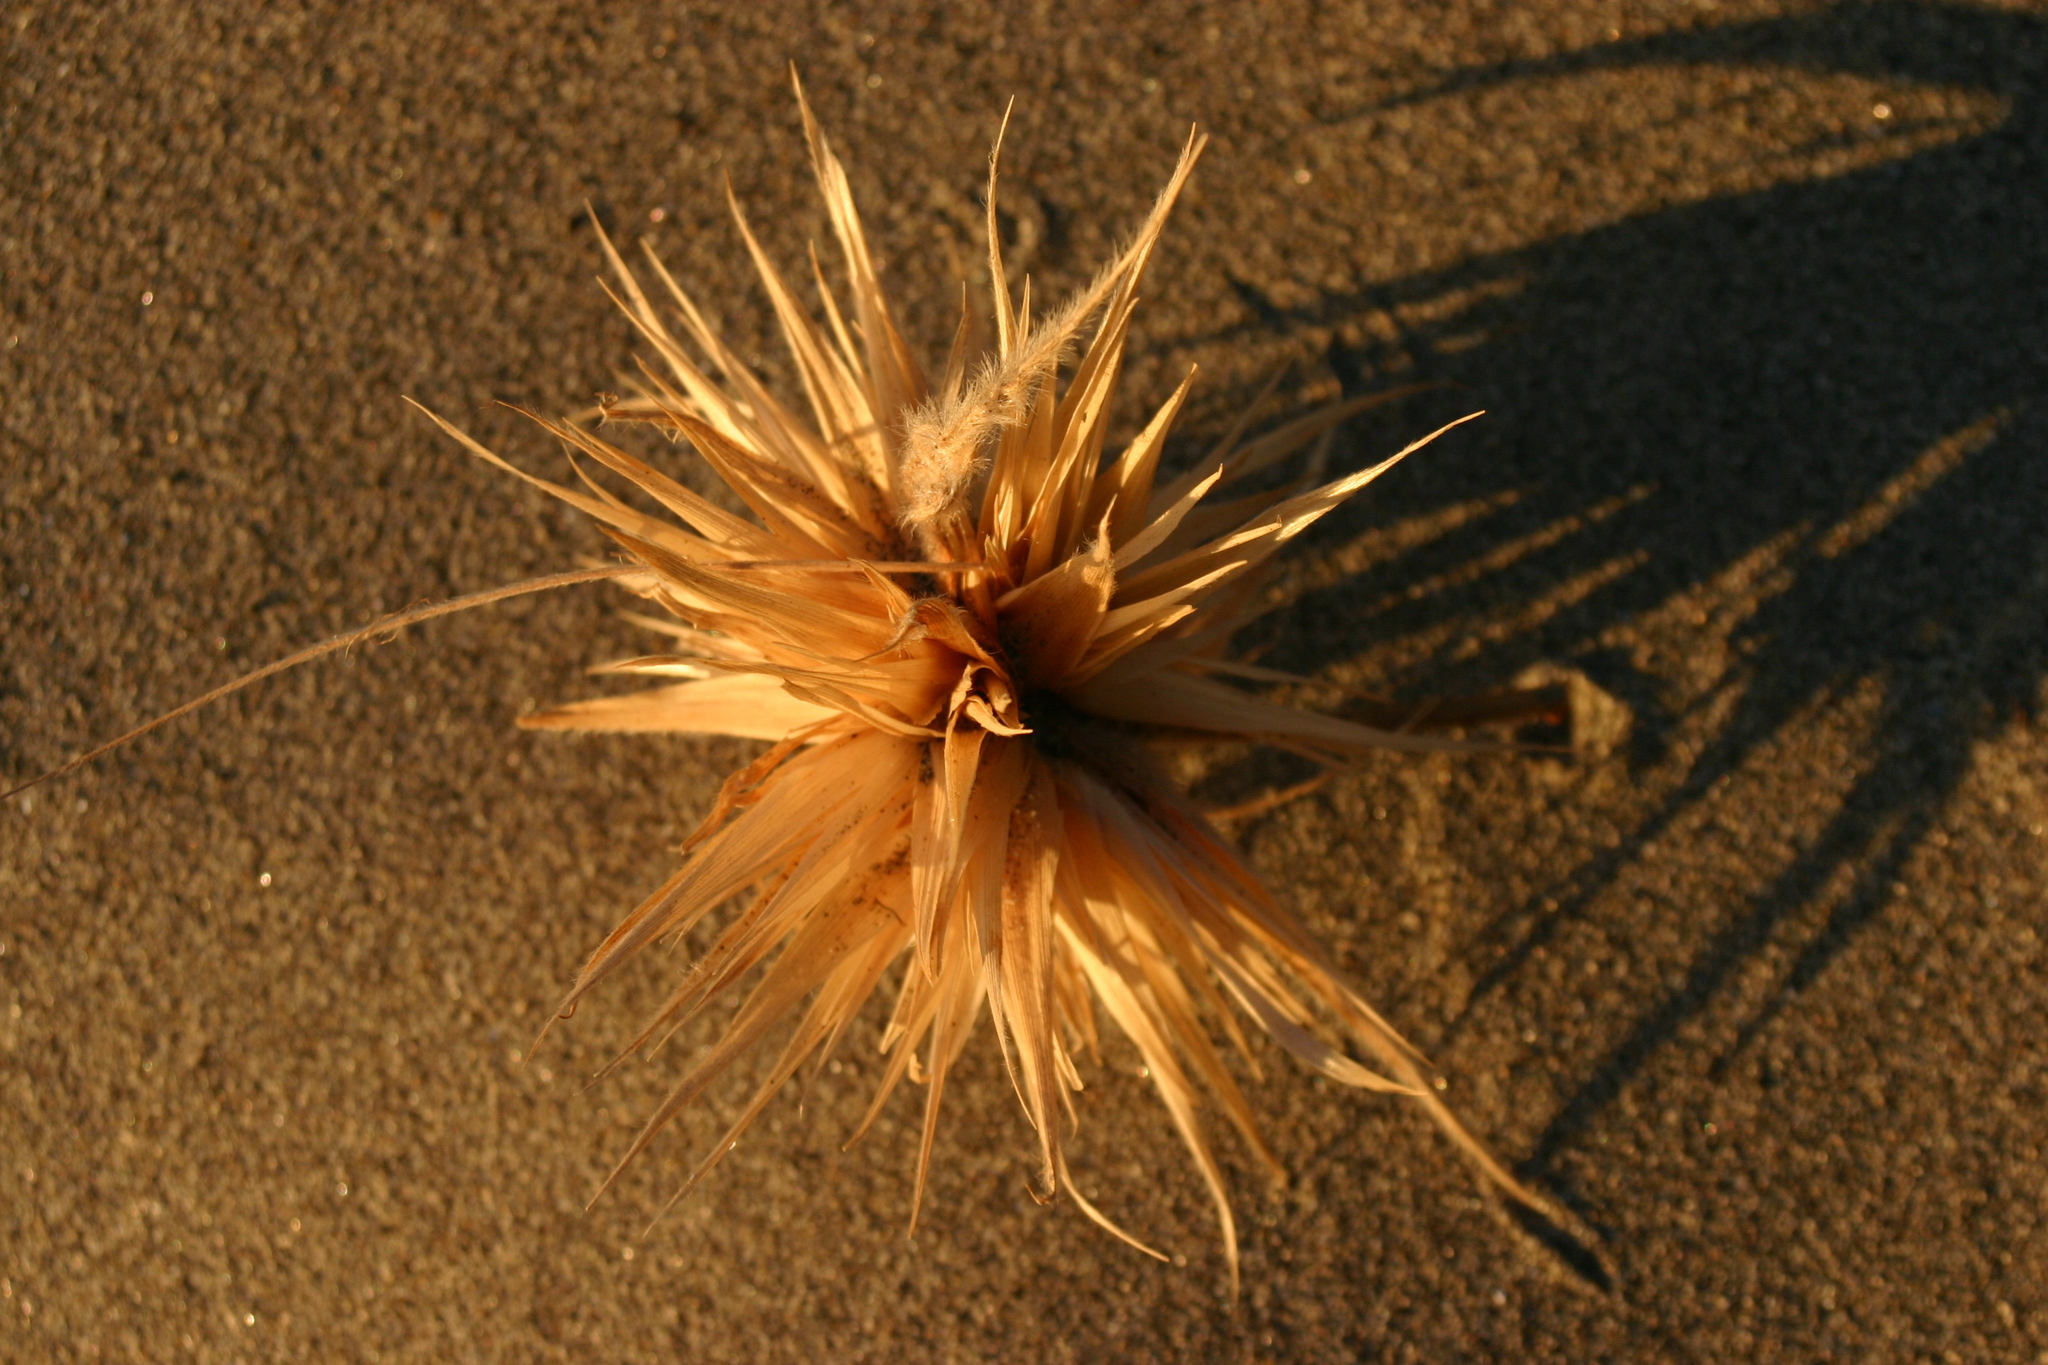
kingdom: Plantae
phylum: Tracheophyta
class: Liliopsida
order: Poales
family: Poaceae
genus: Spinifex
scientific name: Spinifex sericeus
